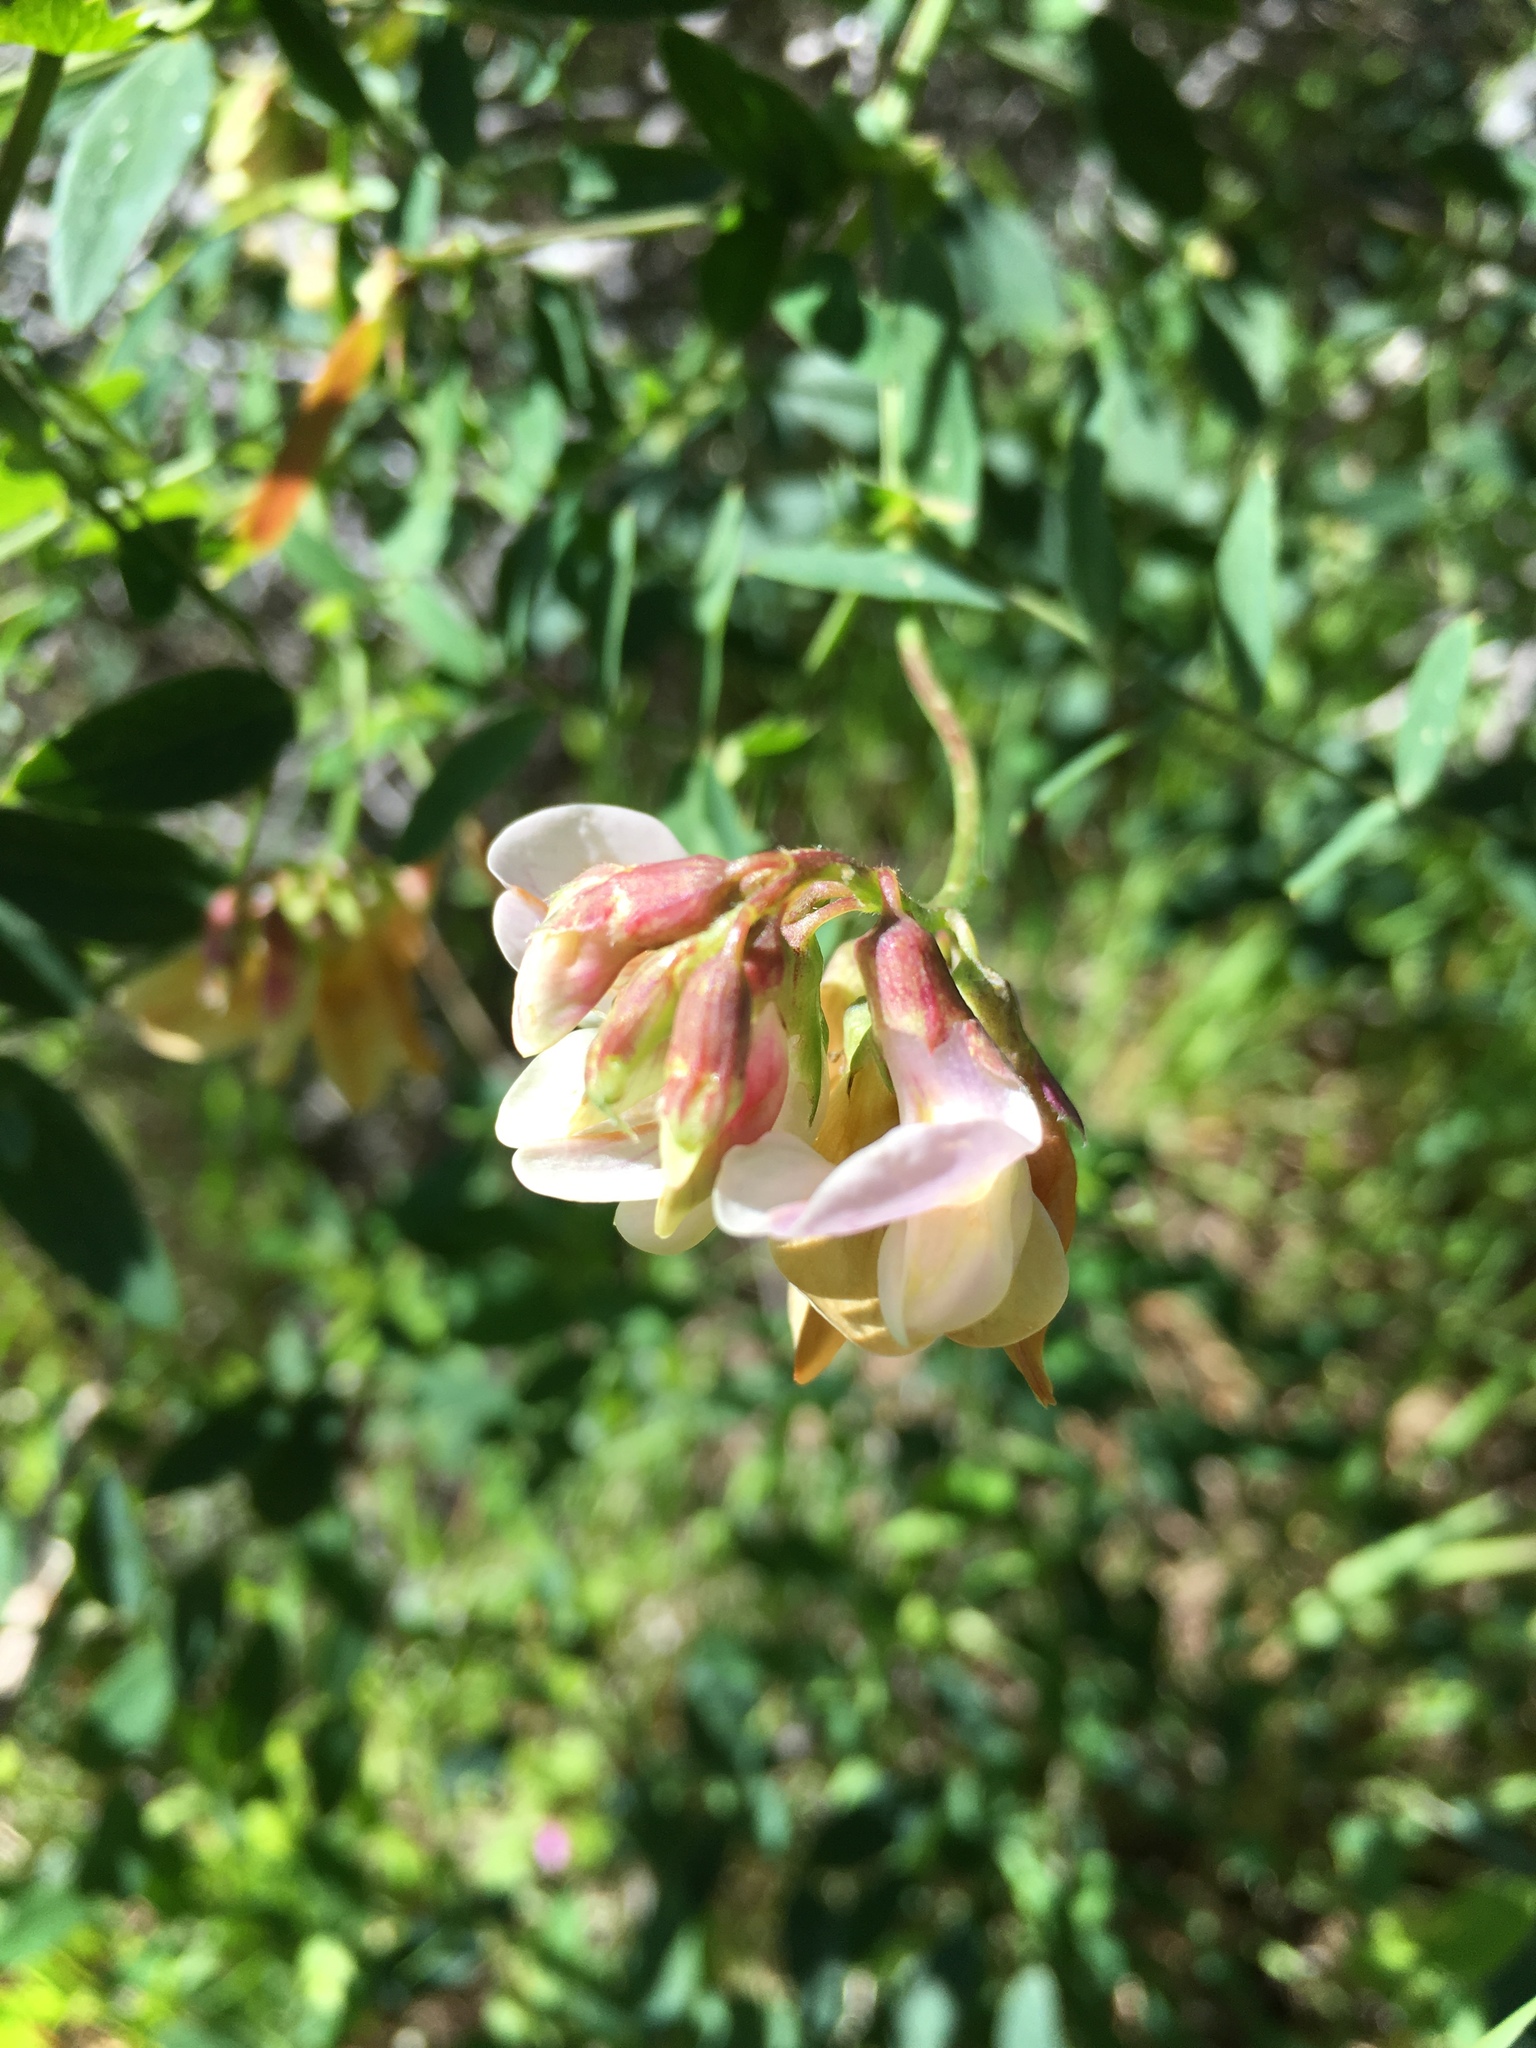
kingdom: Plantae
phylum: Tracheophyta
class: Magnoliopsida
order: Fabales
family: Fabaceae
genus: Lathyrus
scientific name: Lathyrus vestitus
